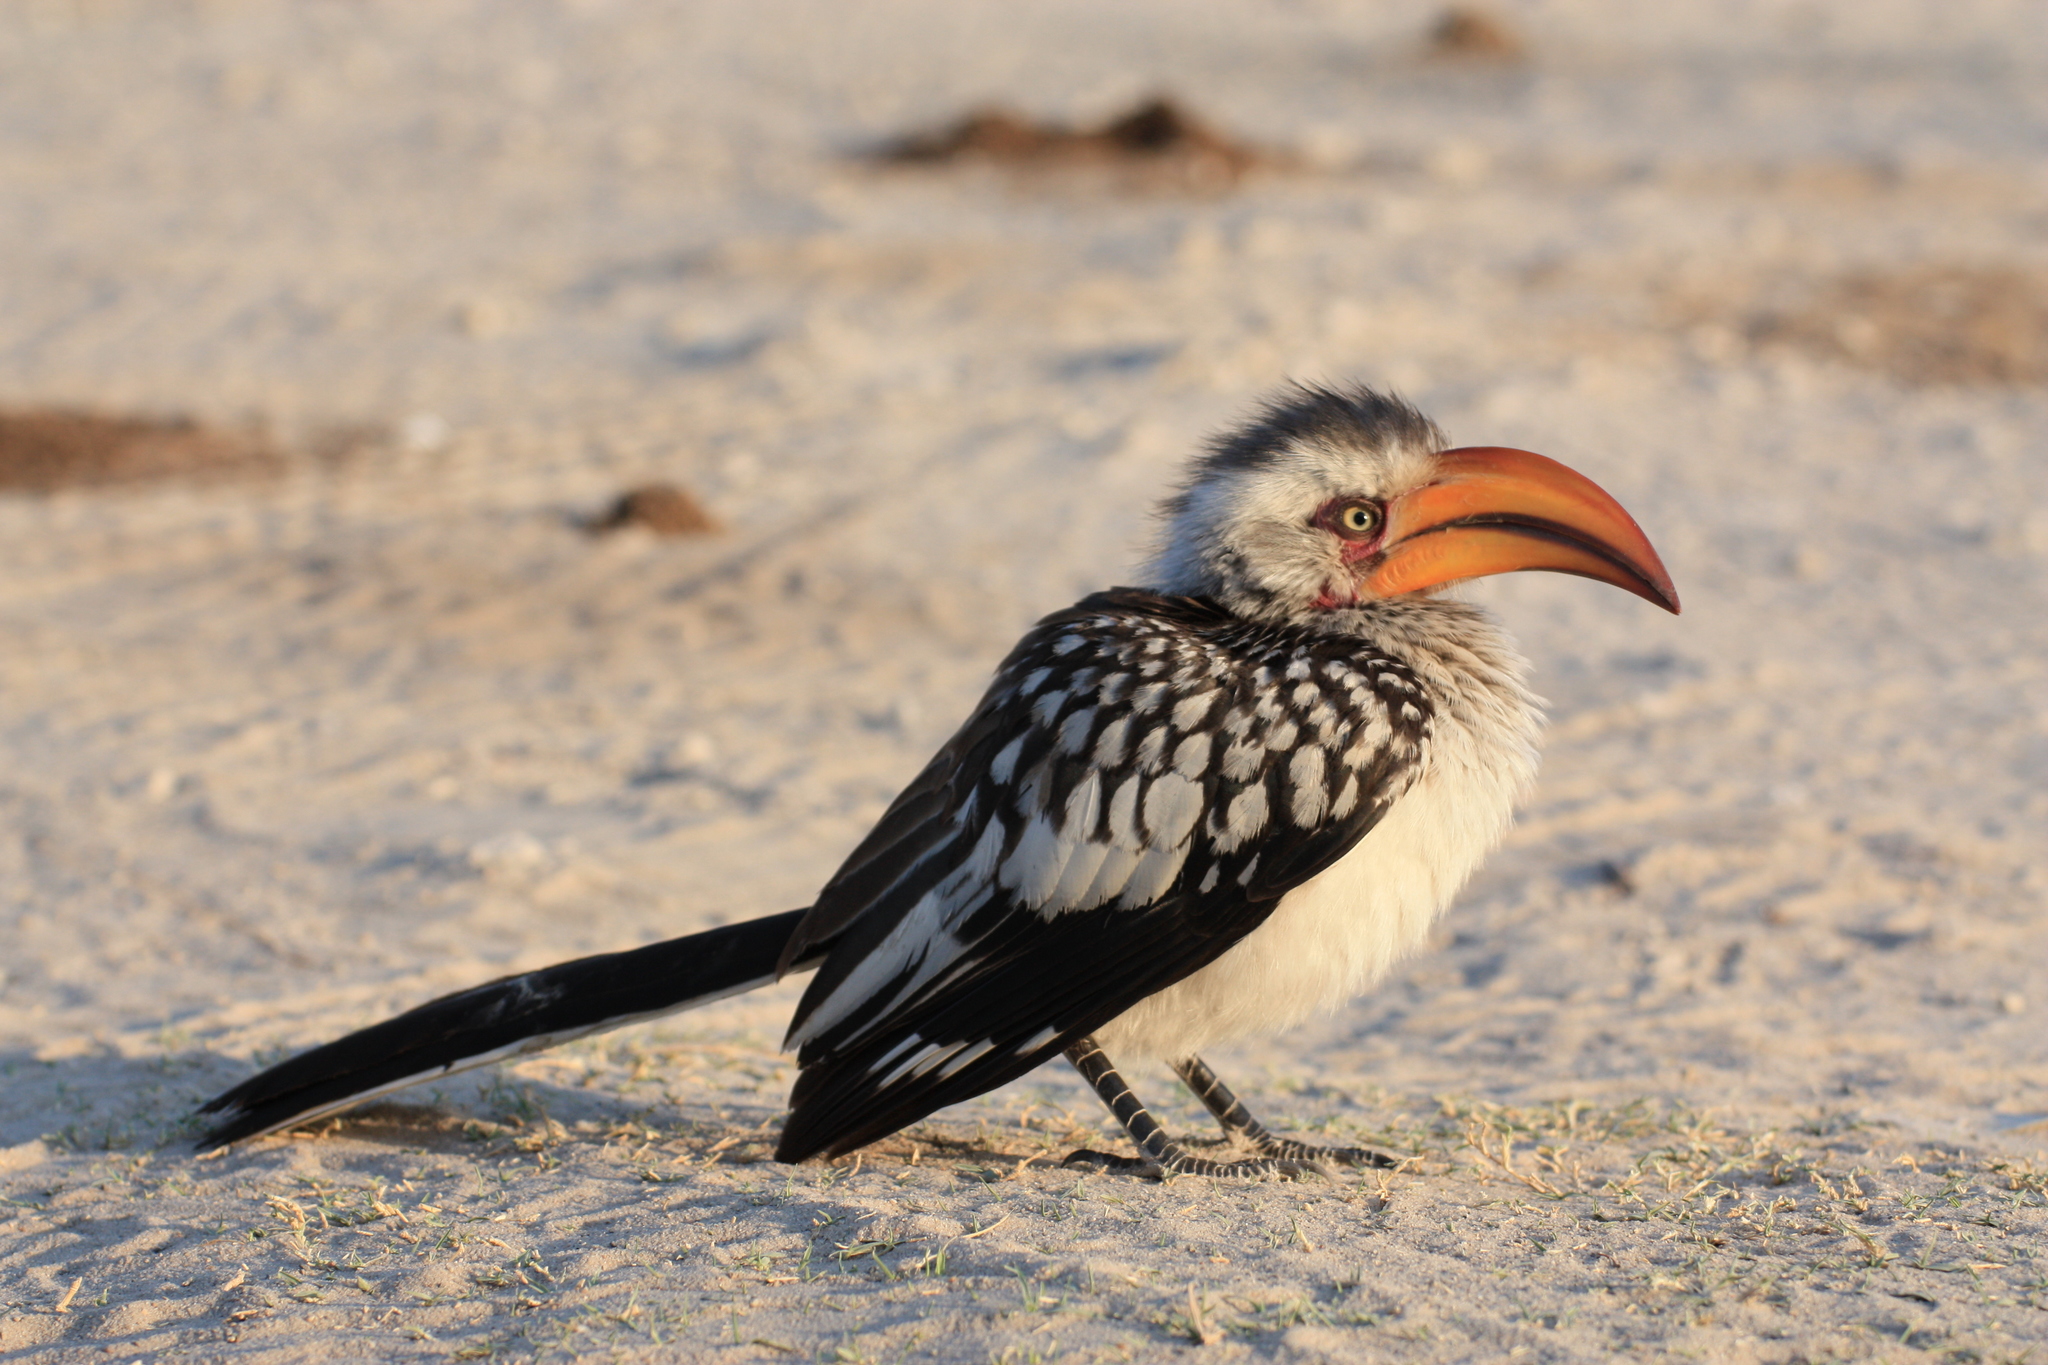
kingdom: Animalia
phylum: Chordata
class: Aves
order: Bucerotiformes
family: Bucerotidae
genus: Tockus
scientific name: Tockus leucomelas
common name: Southern yellow-billed hornbill
